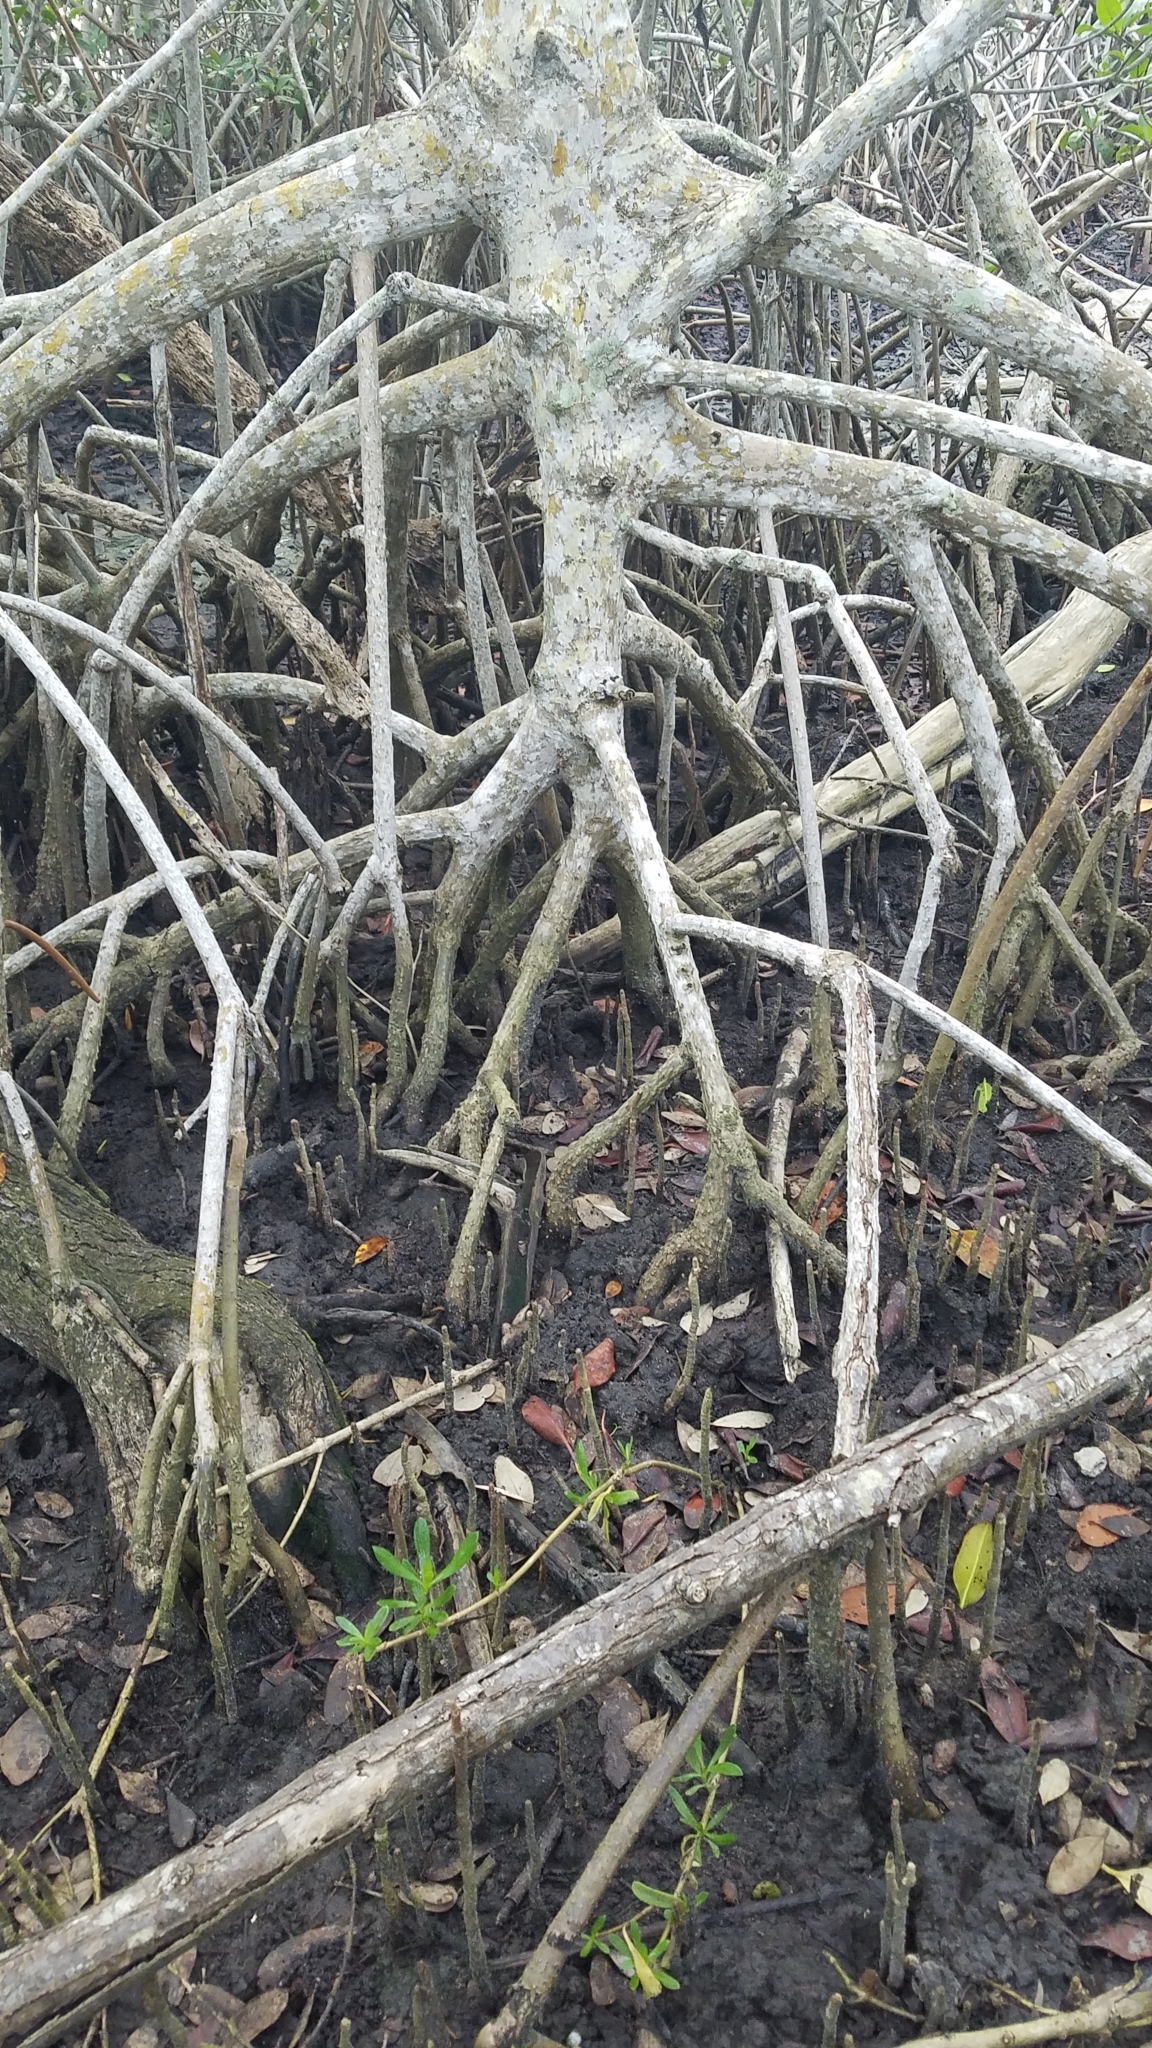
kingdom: Plantae
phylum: Tracheophyta
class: Magnoliopsida
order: Malpighiales
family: Rhizophoraceae
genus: Rhizophora
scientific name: Rhizophora mangle
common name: Red mangrove
